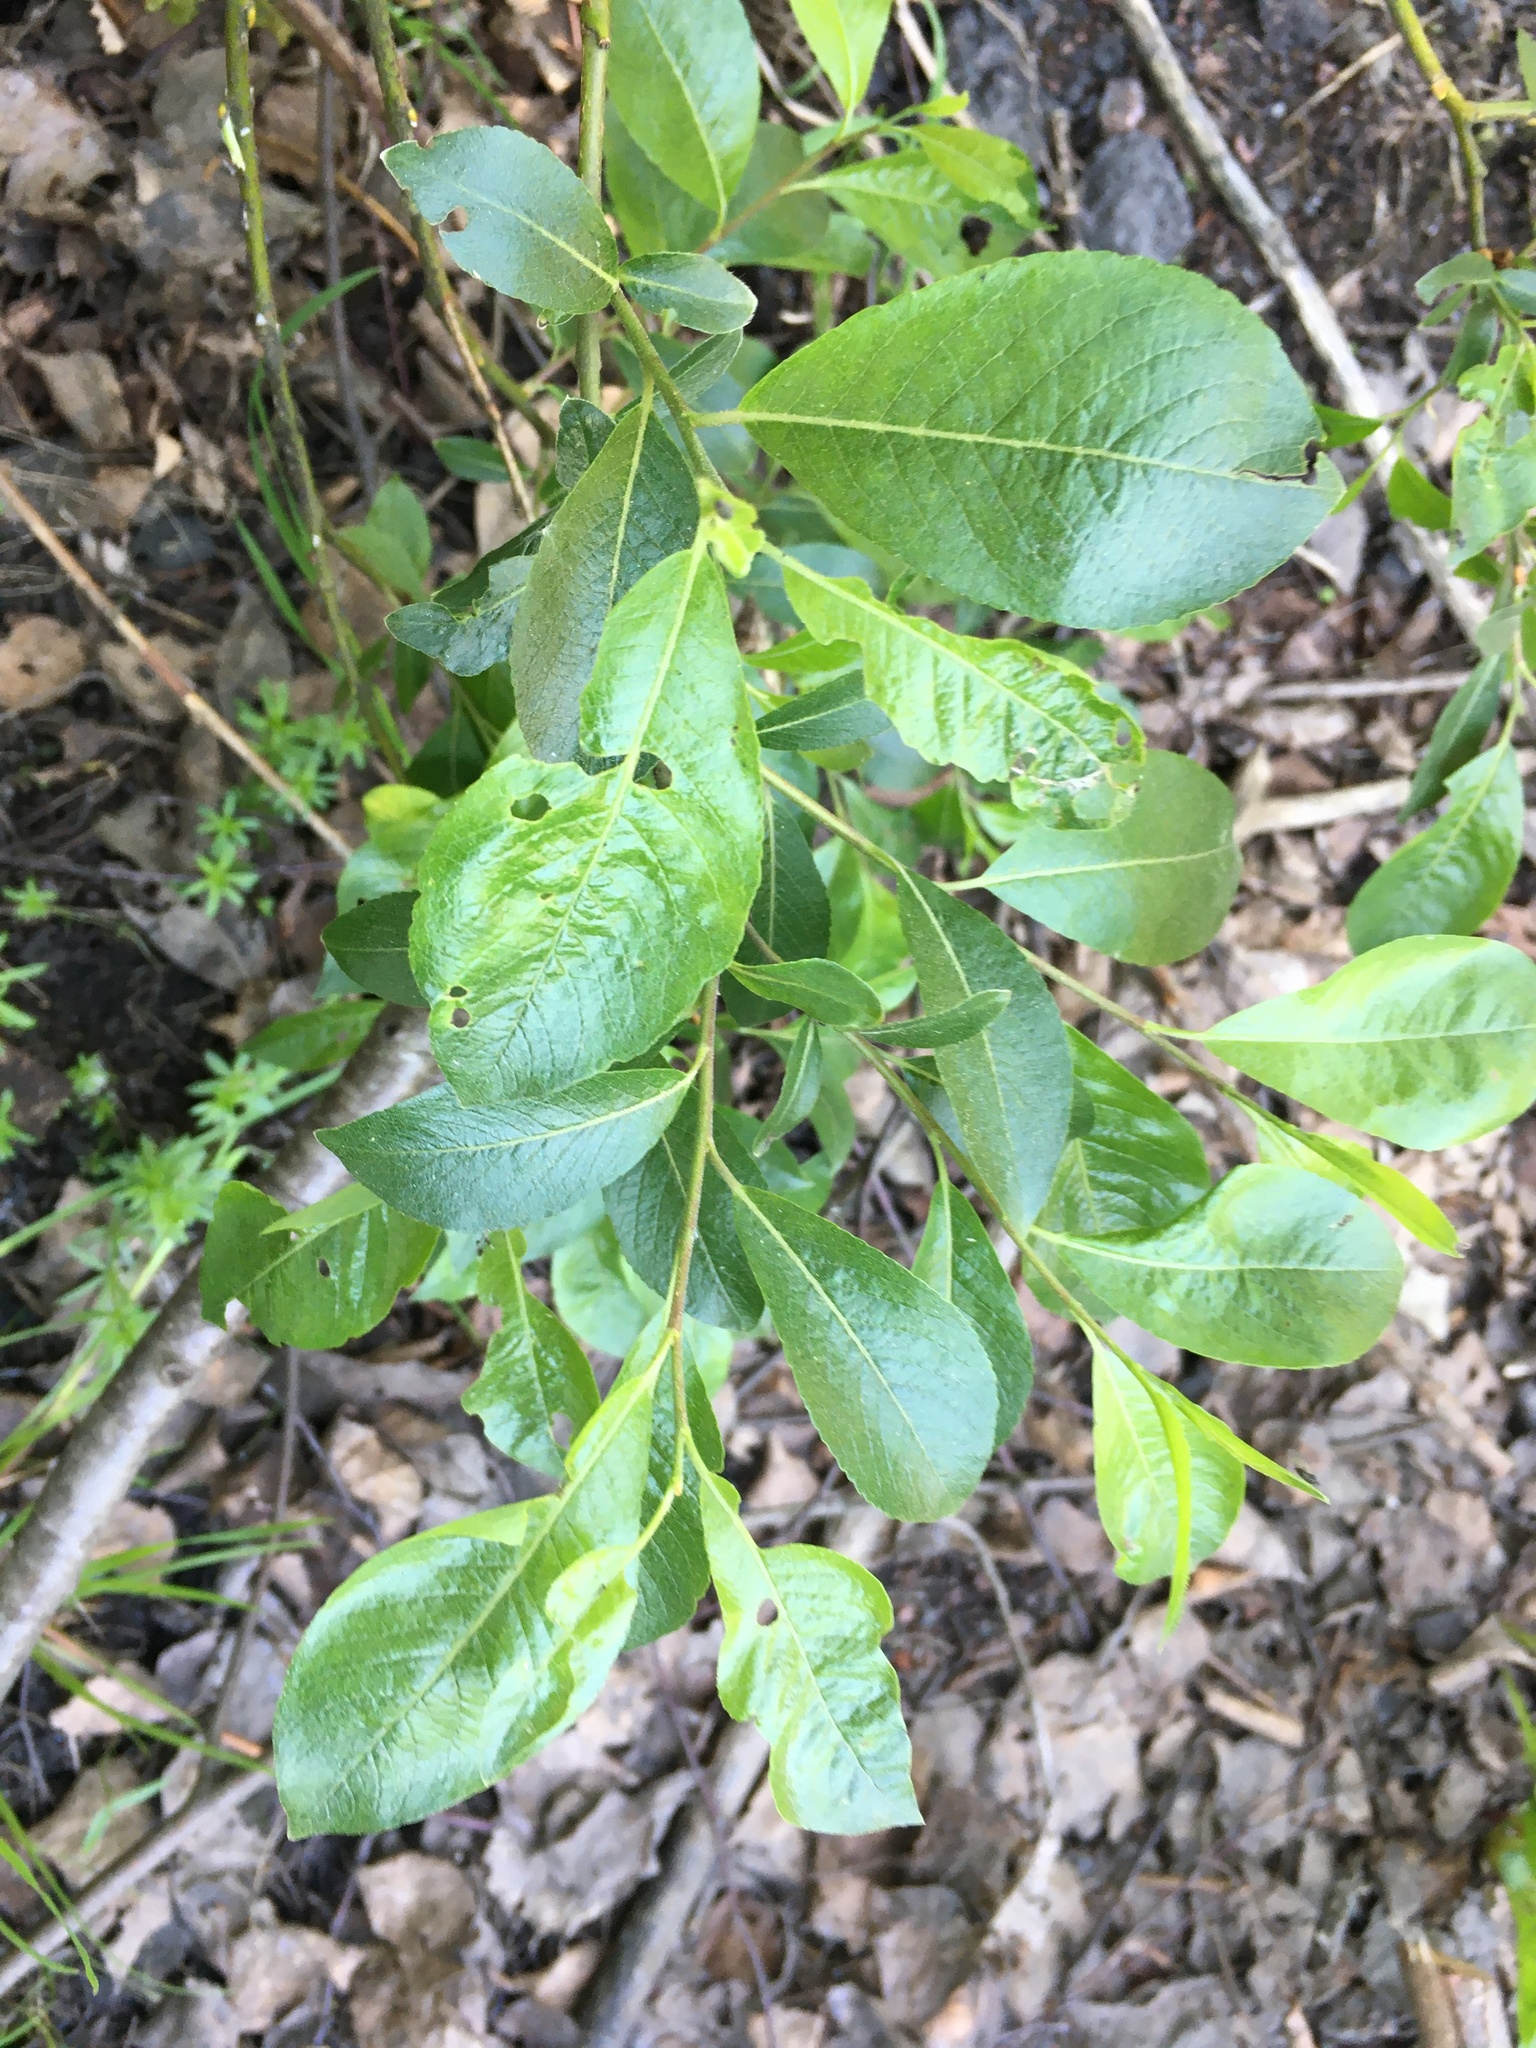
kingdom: Plantae
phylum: Tracheophyta
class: Magnoliopsida
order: Malpighiales
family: Salicaceae
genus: Salix
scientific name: Salix myrsinifolia
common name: Dark-leaved willow
